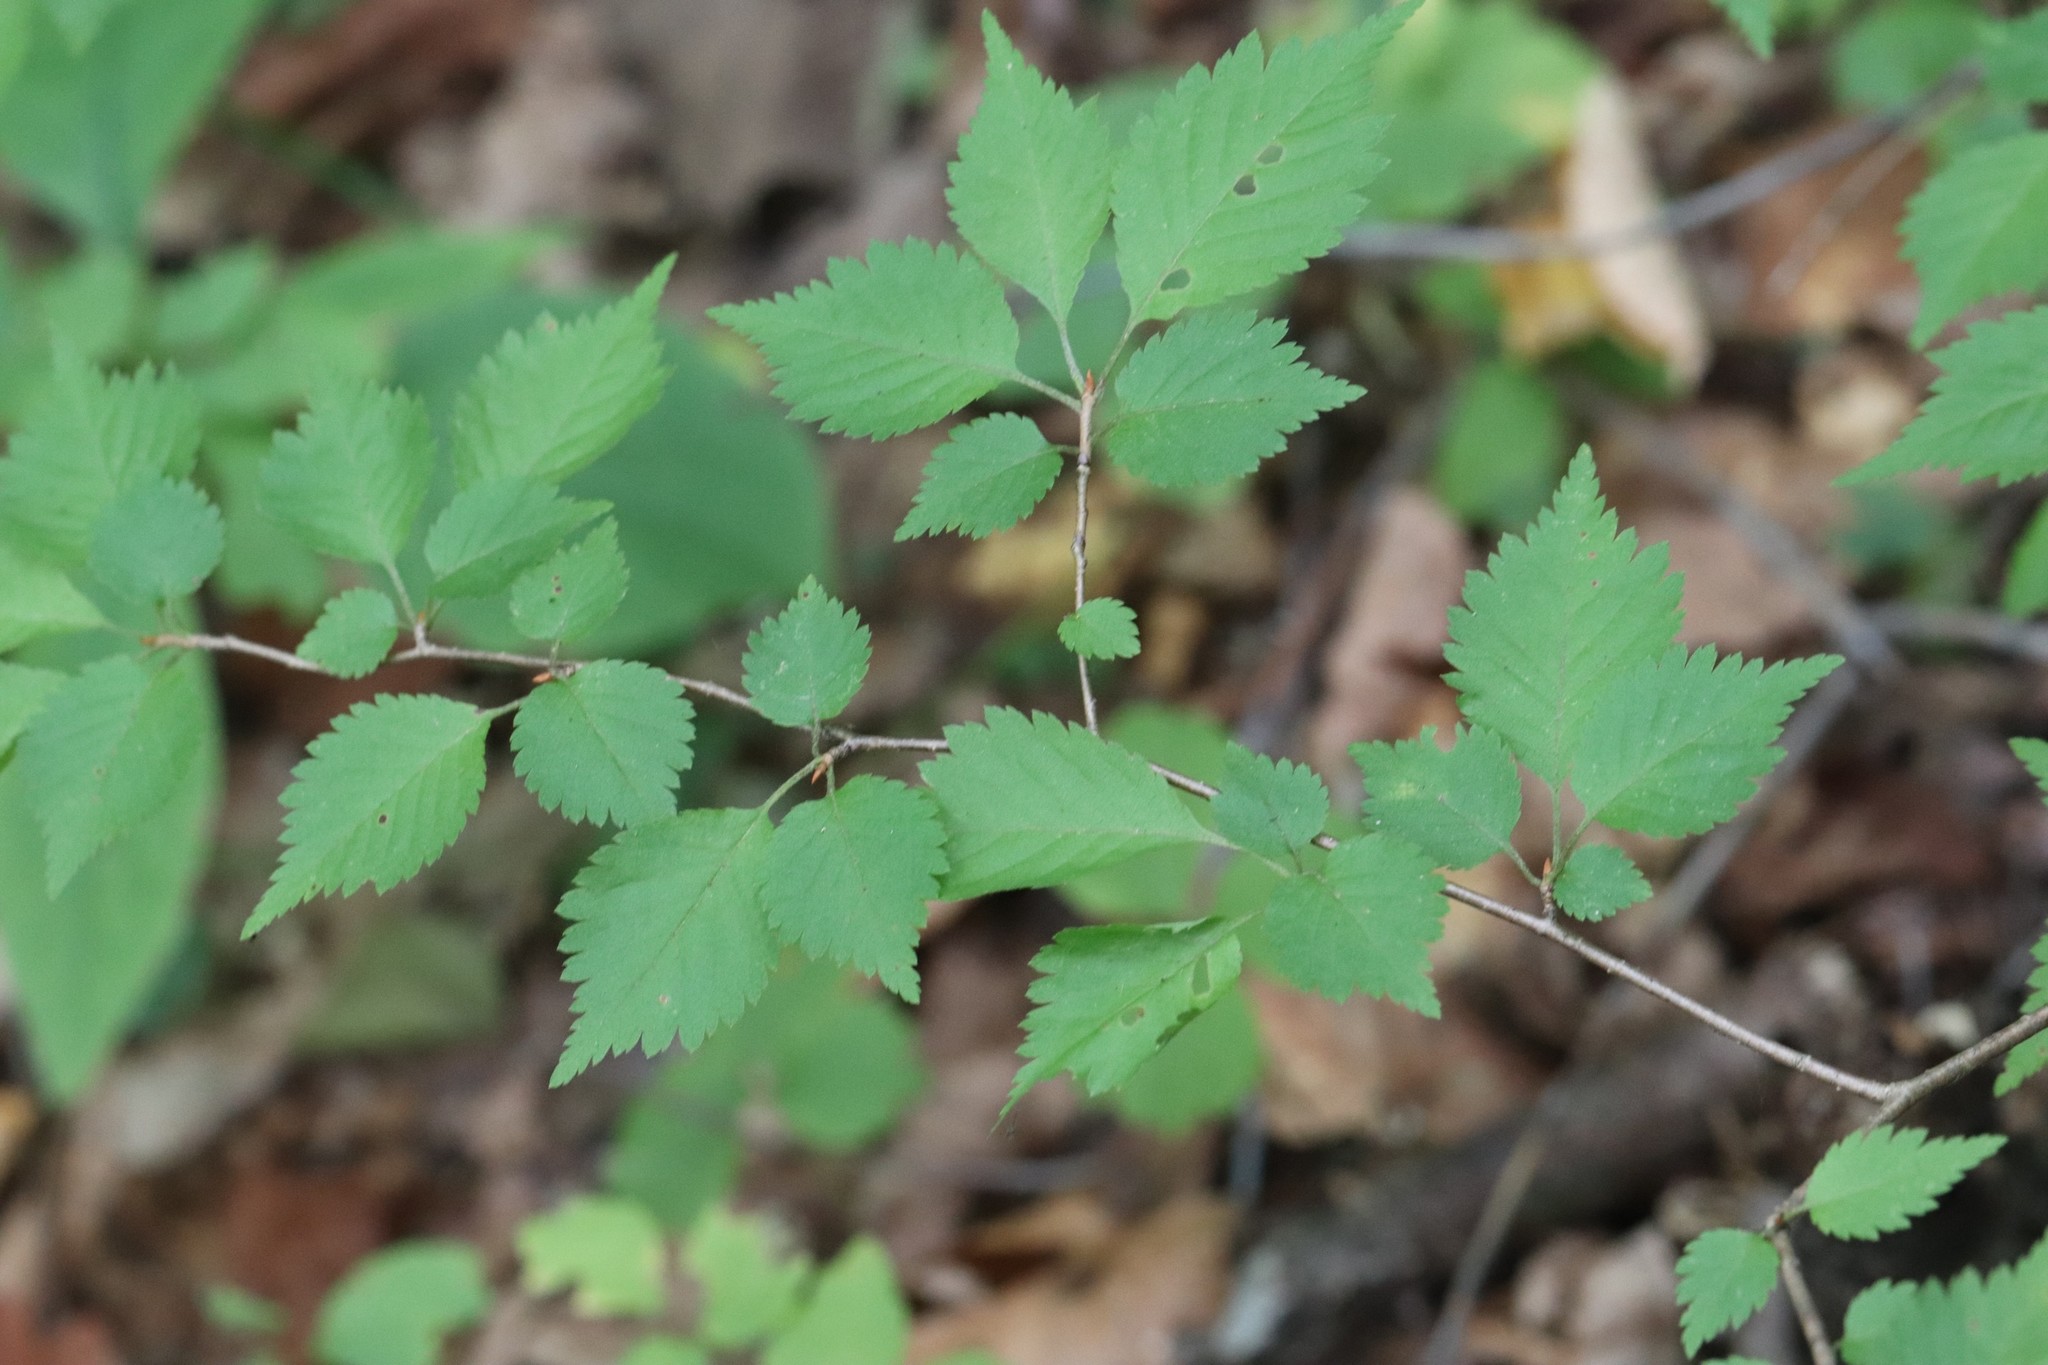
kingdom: Plantae
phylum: Tracheophyta
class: Magnoliopsida
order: Rosales
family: Rosaceae
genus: Prunus
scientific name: Prunus maximowiczii
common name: Korean cherry
